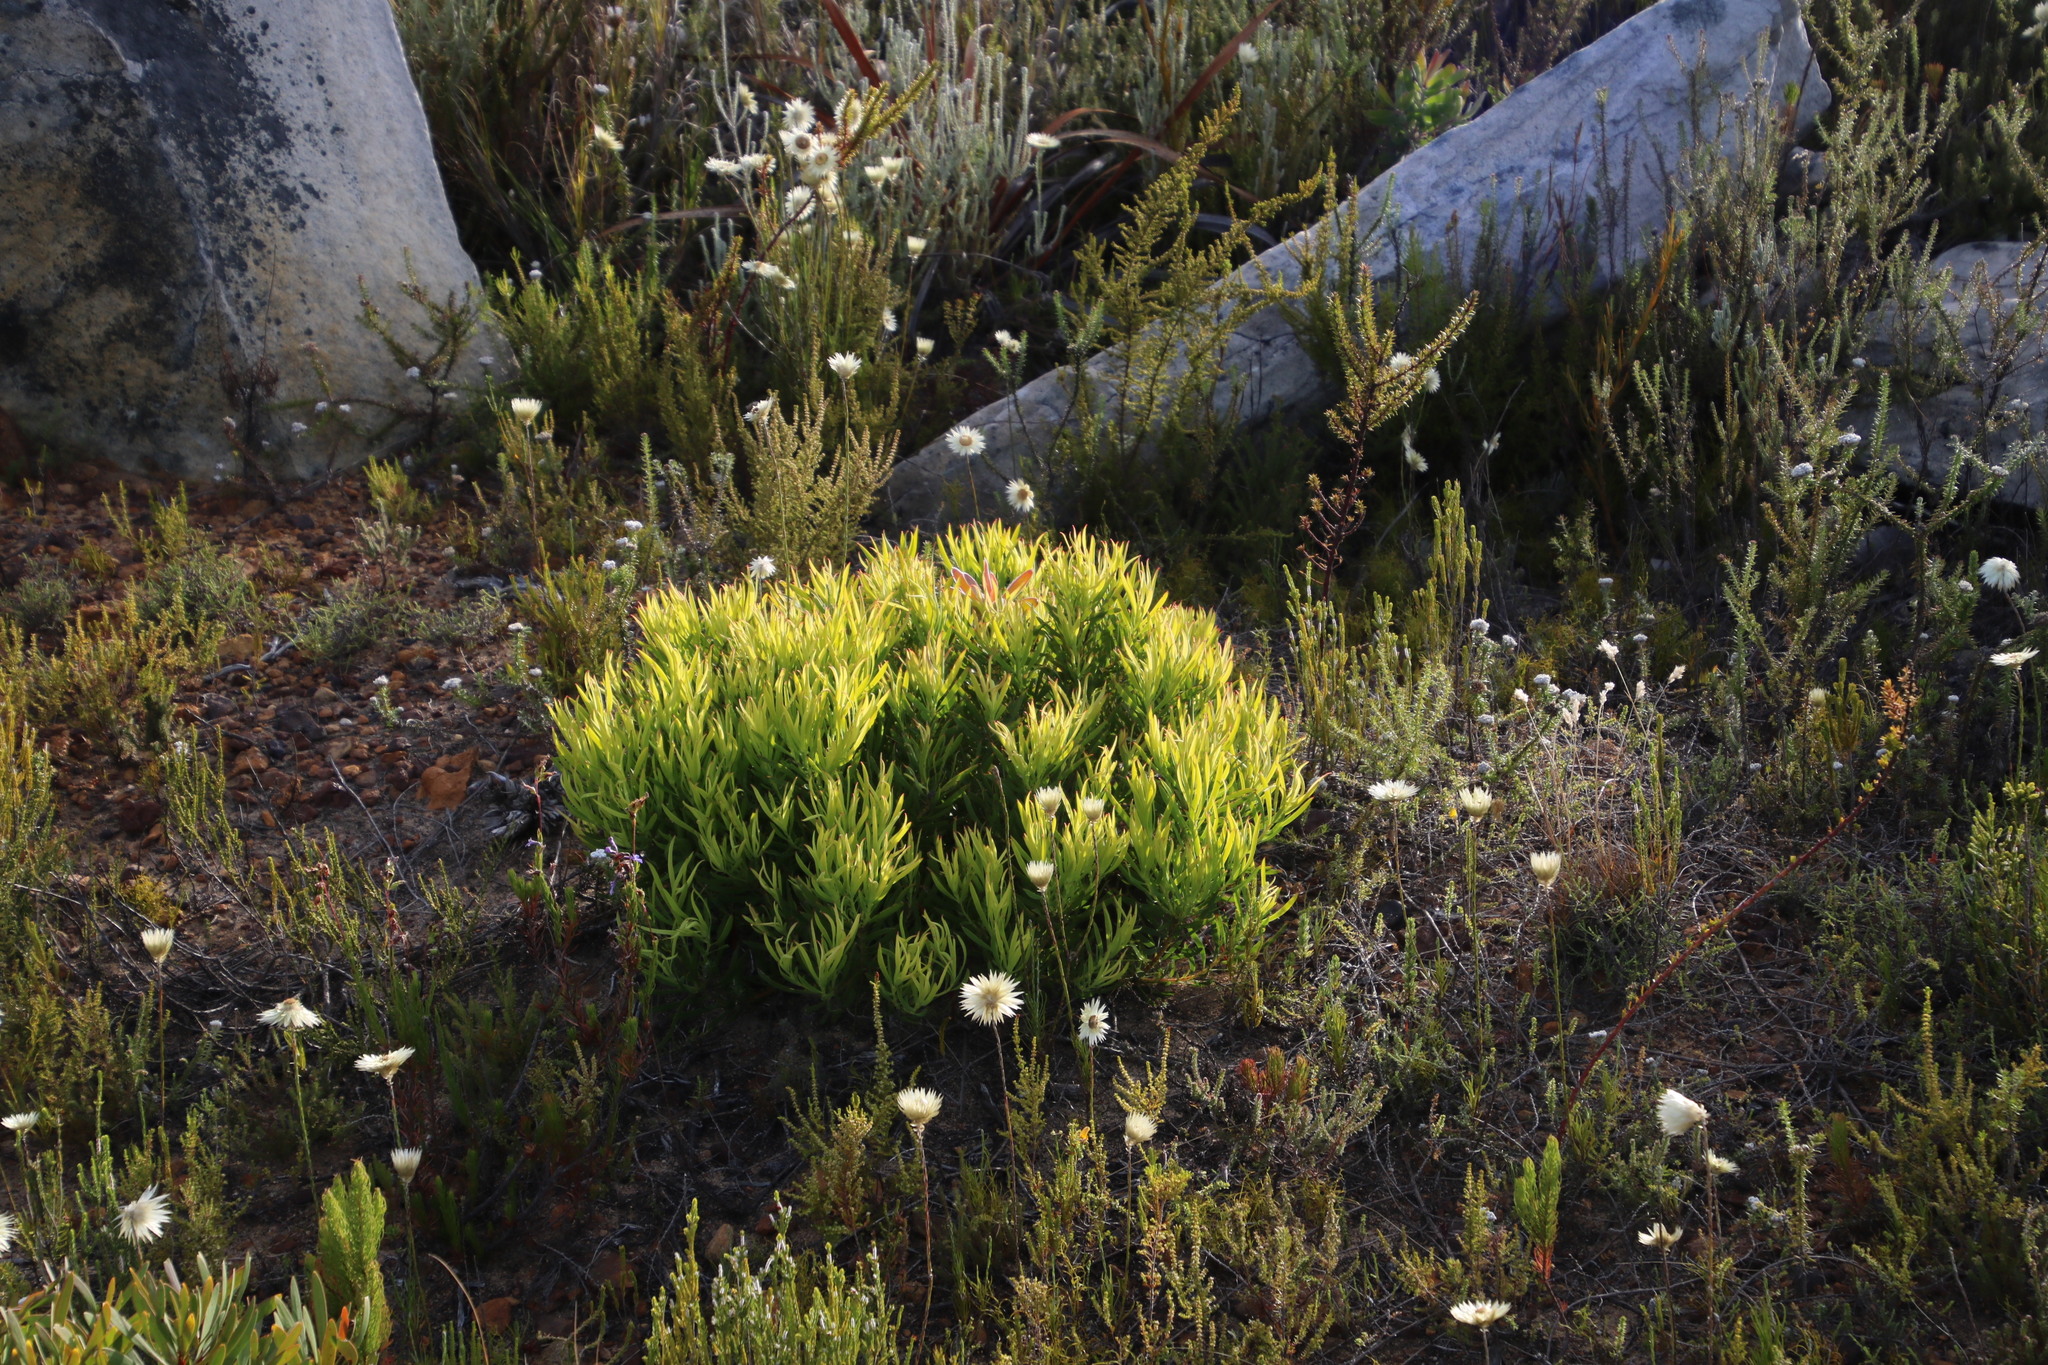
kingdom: Plantae
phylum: Tracheophyta
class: Magnoliopsida
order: Proteales
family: Proteaceae
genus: Leucadendron
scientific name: Leucadendron salignum
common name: Common sunshine conebush
